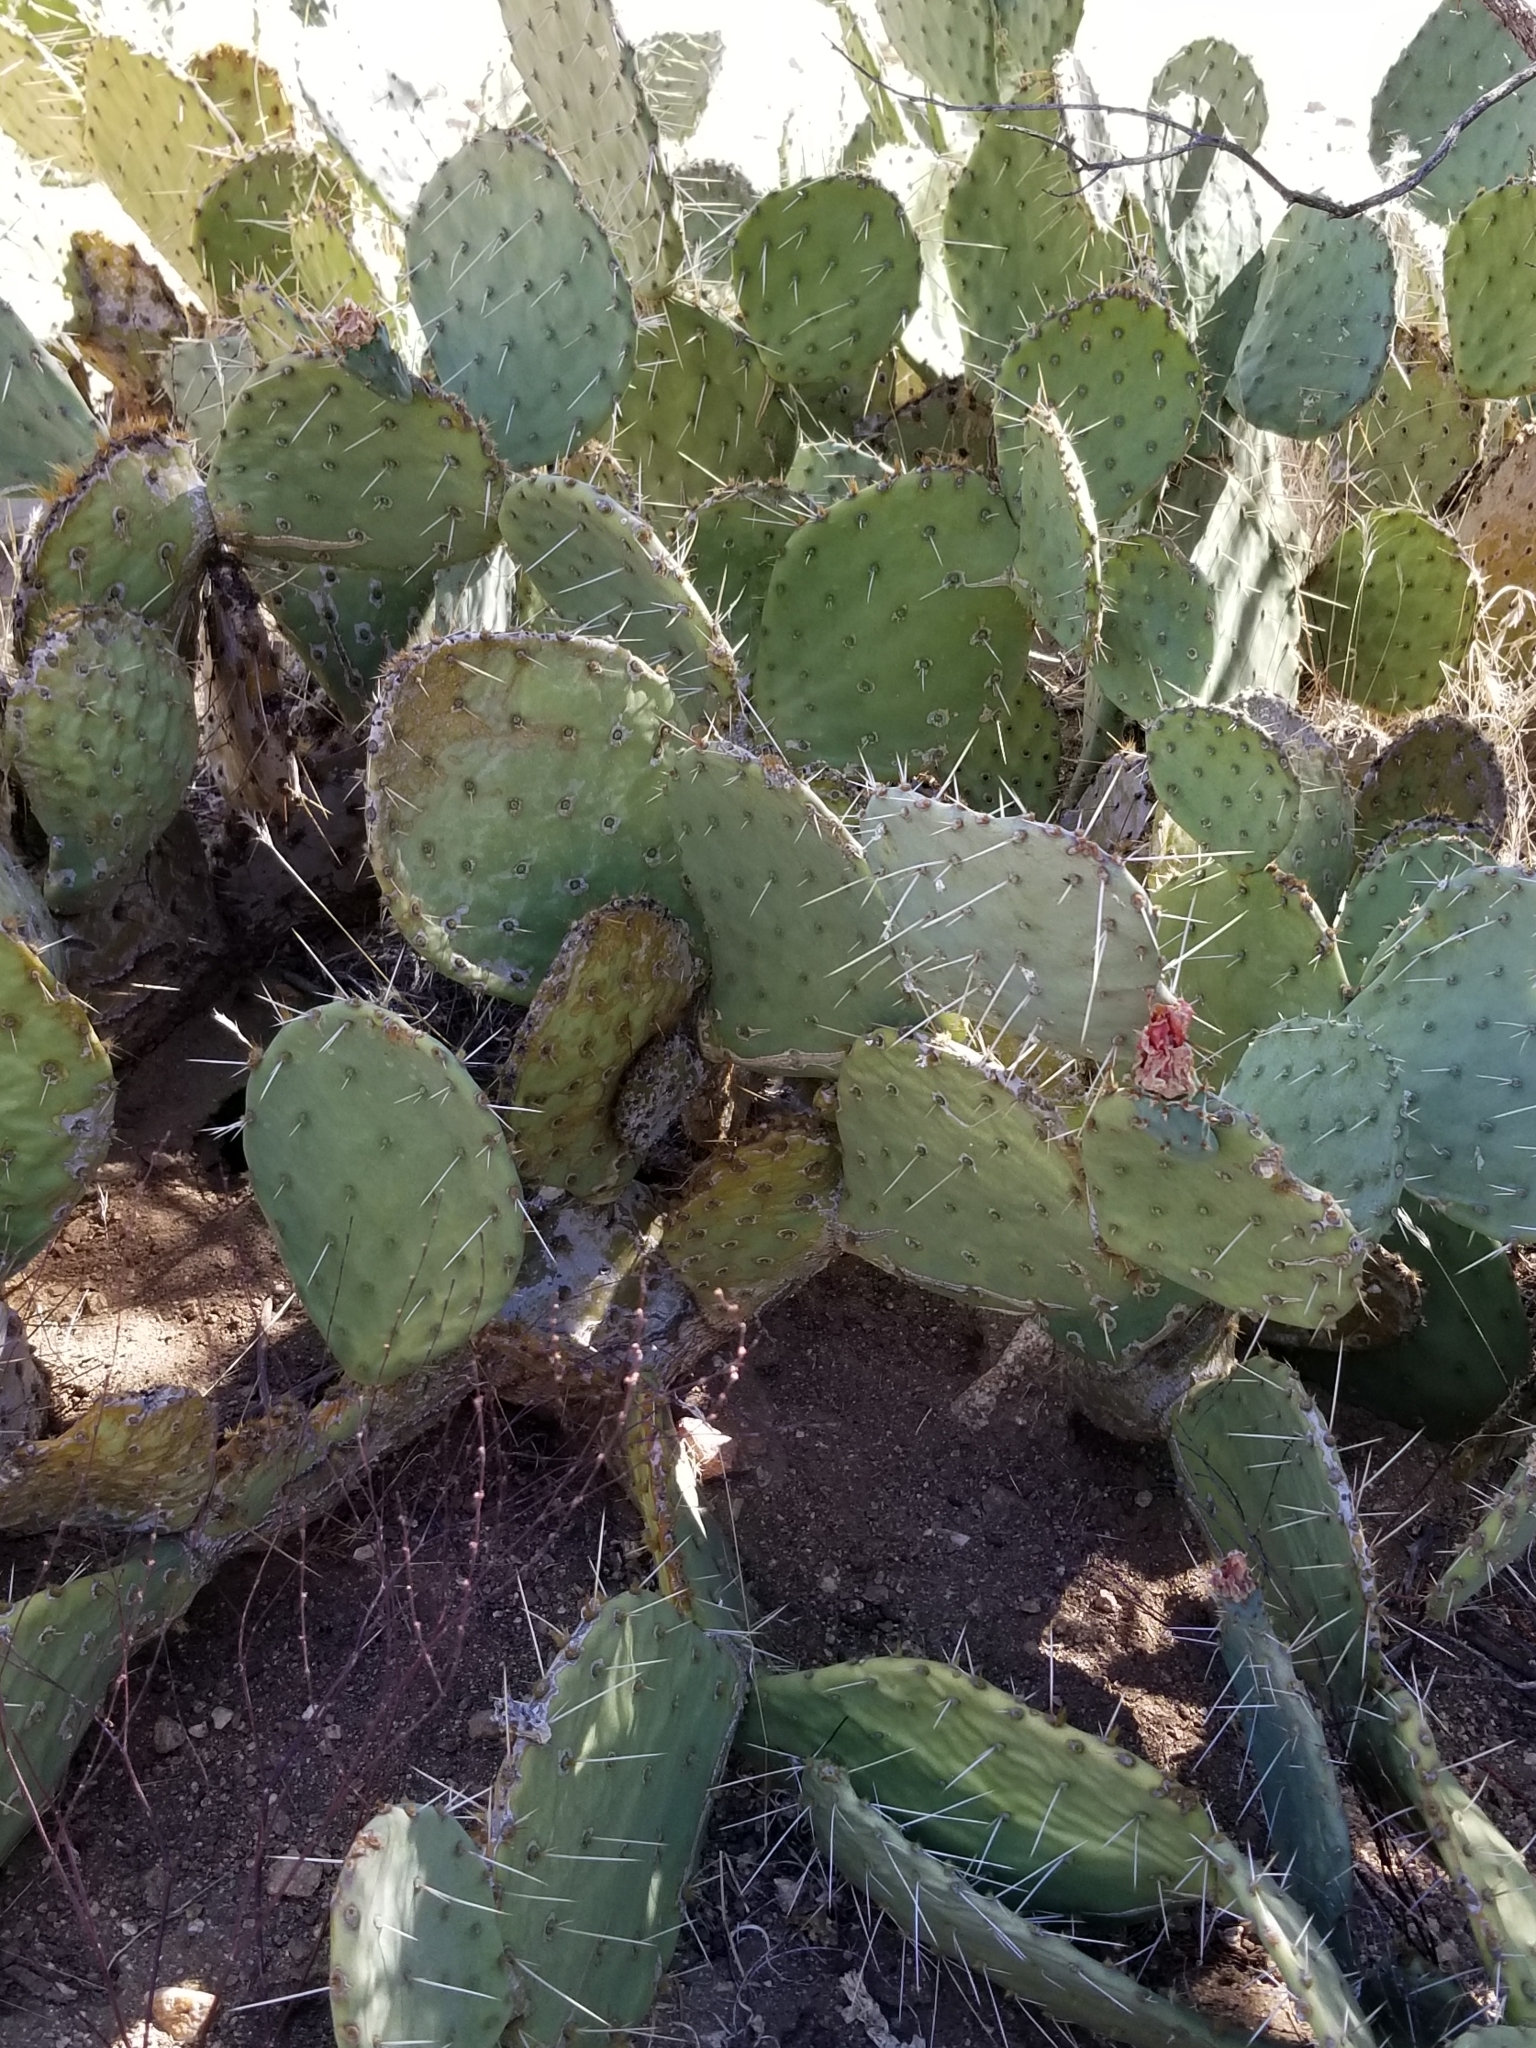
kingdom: Plantae
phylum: Tracheophyta
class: Magnoliopsida
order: Caryophyllales
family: Cactaceae
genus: Opuntia
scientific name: Opuntia phaeacantha
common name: New mexico prickly-pear
